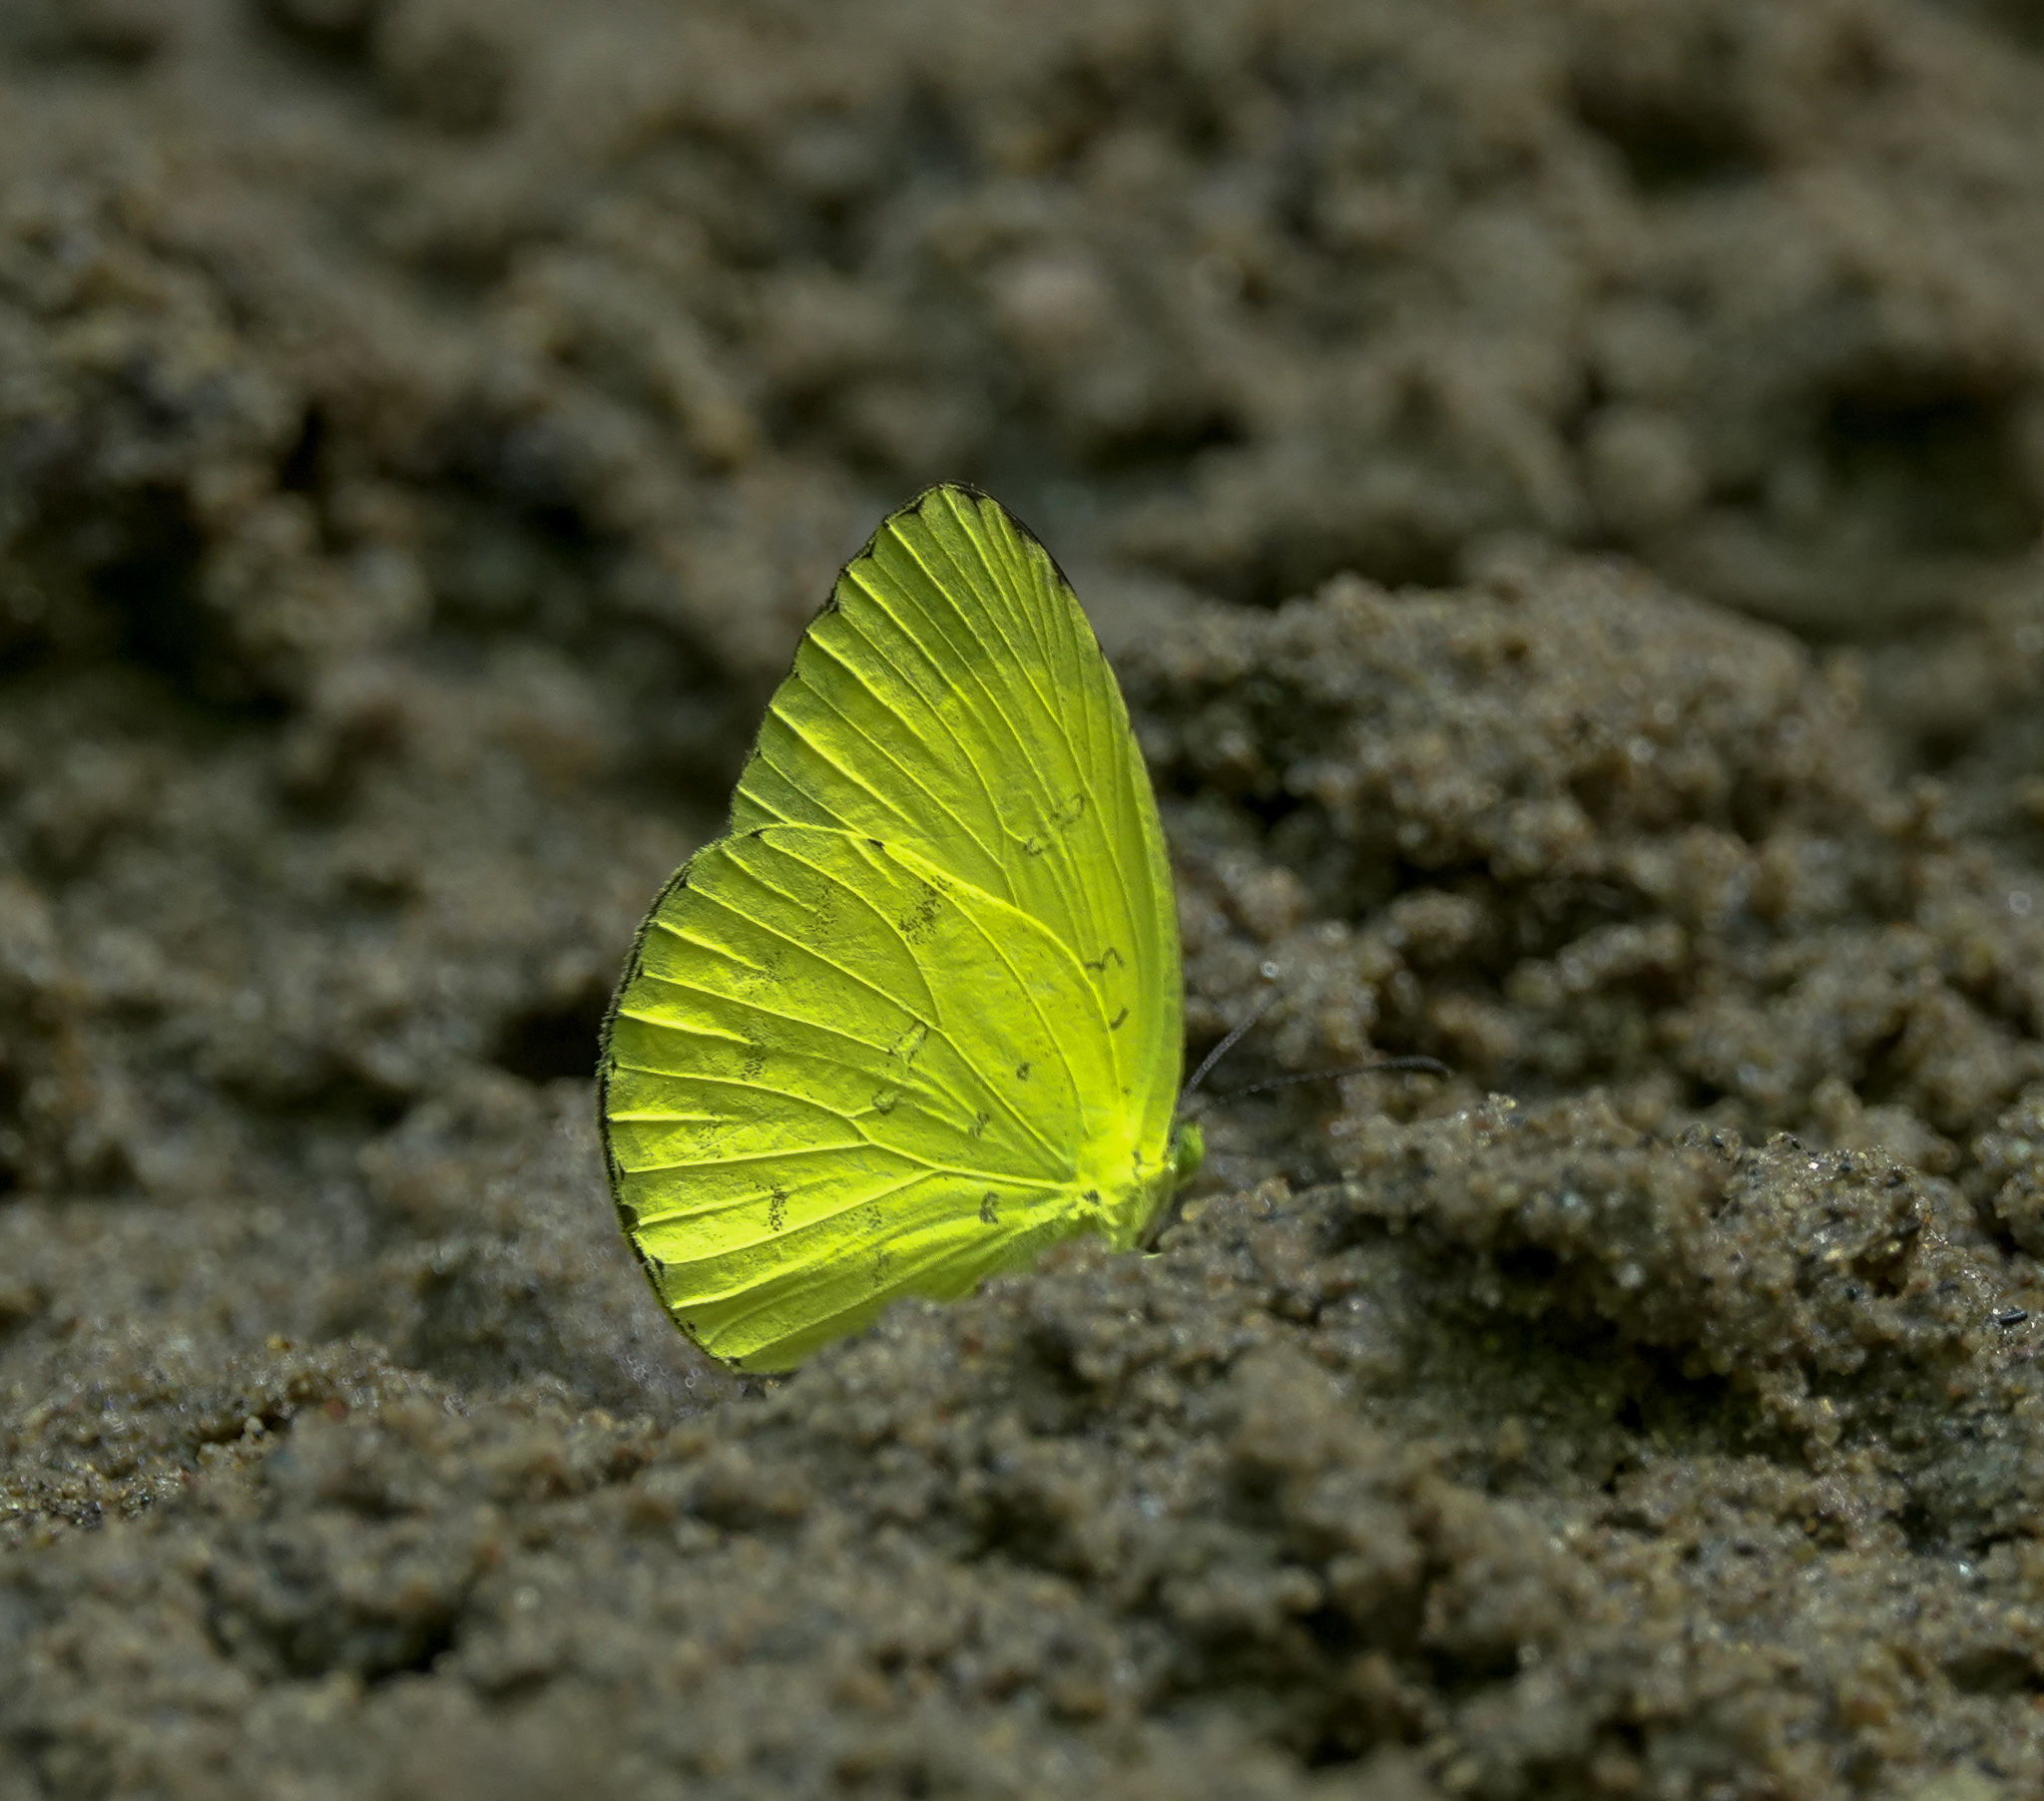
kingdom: Animalia
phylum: Arthropoda
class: Insecta
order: Lepidoptera
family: Pieridae
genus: Eurema
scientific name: Eurema blanda
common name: Three-spot grass yellow
